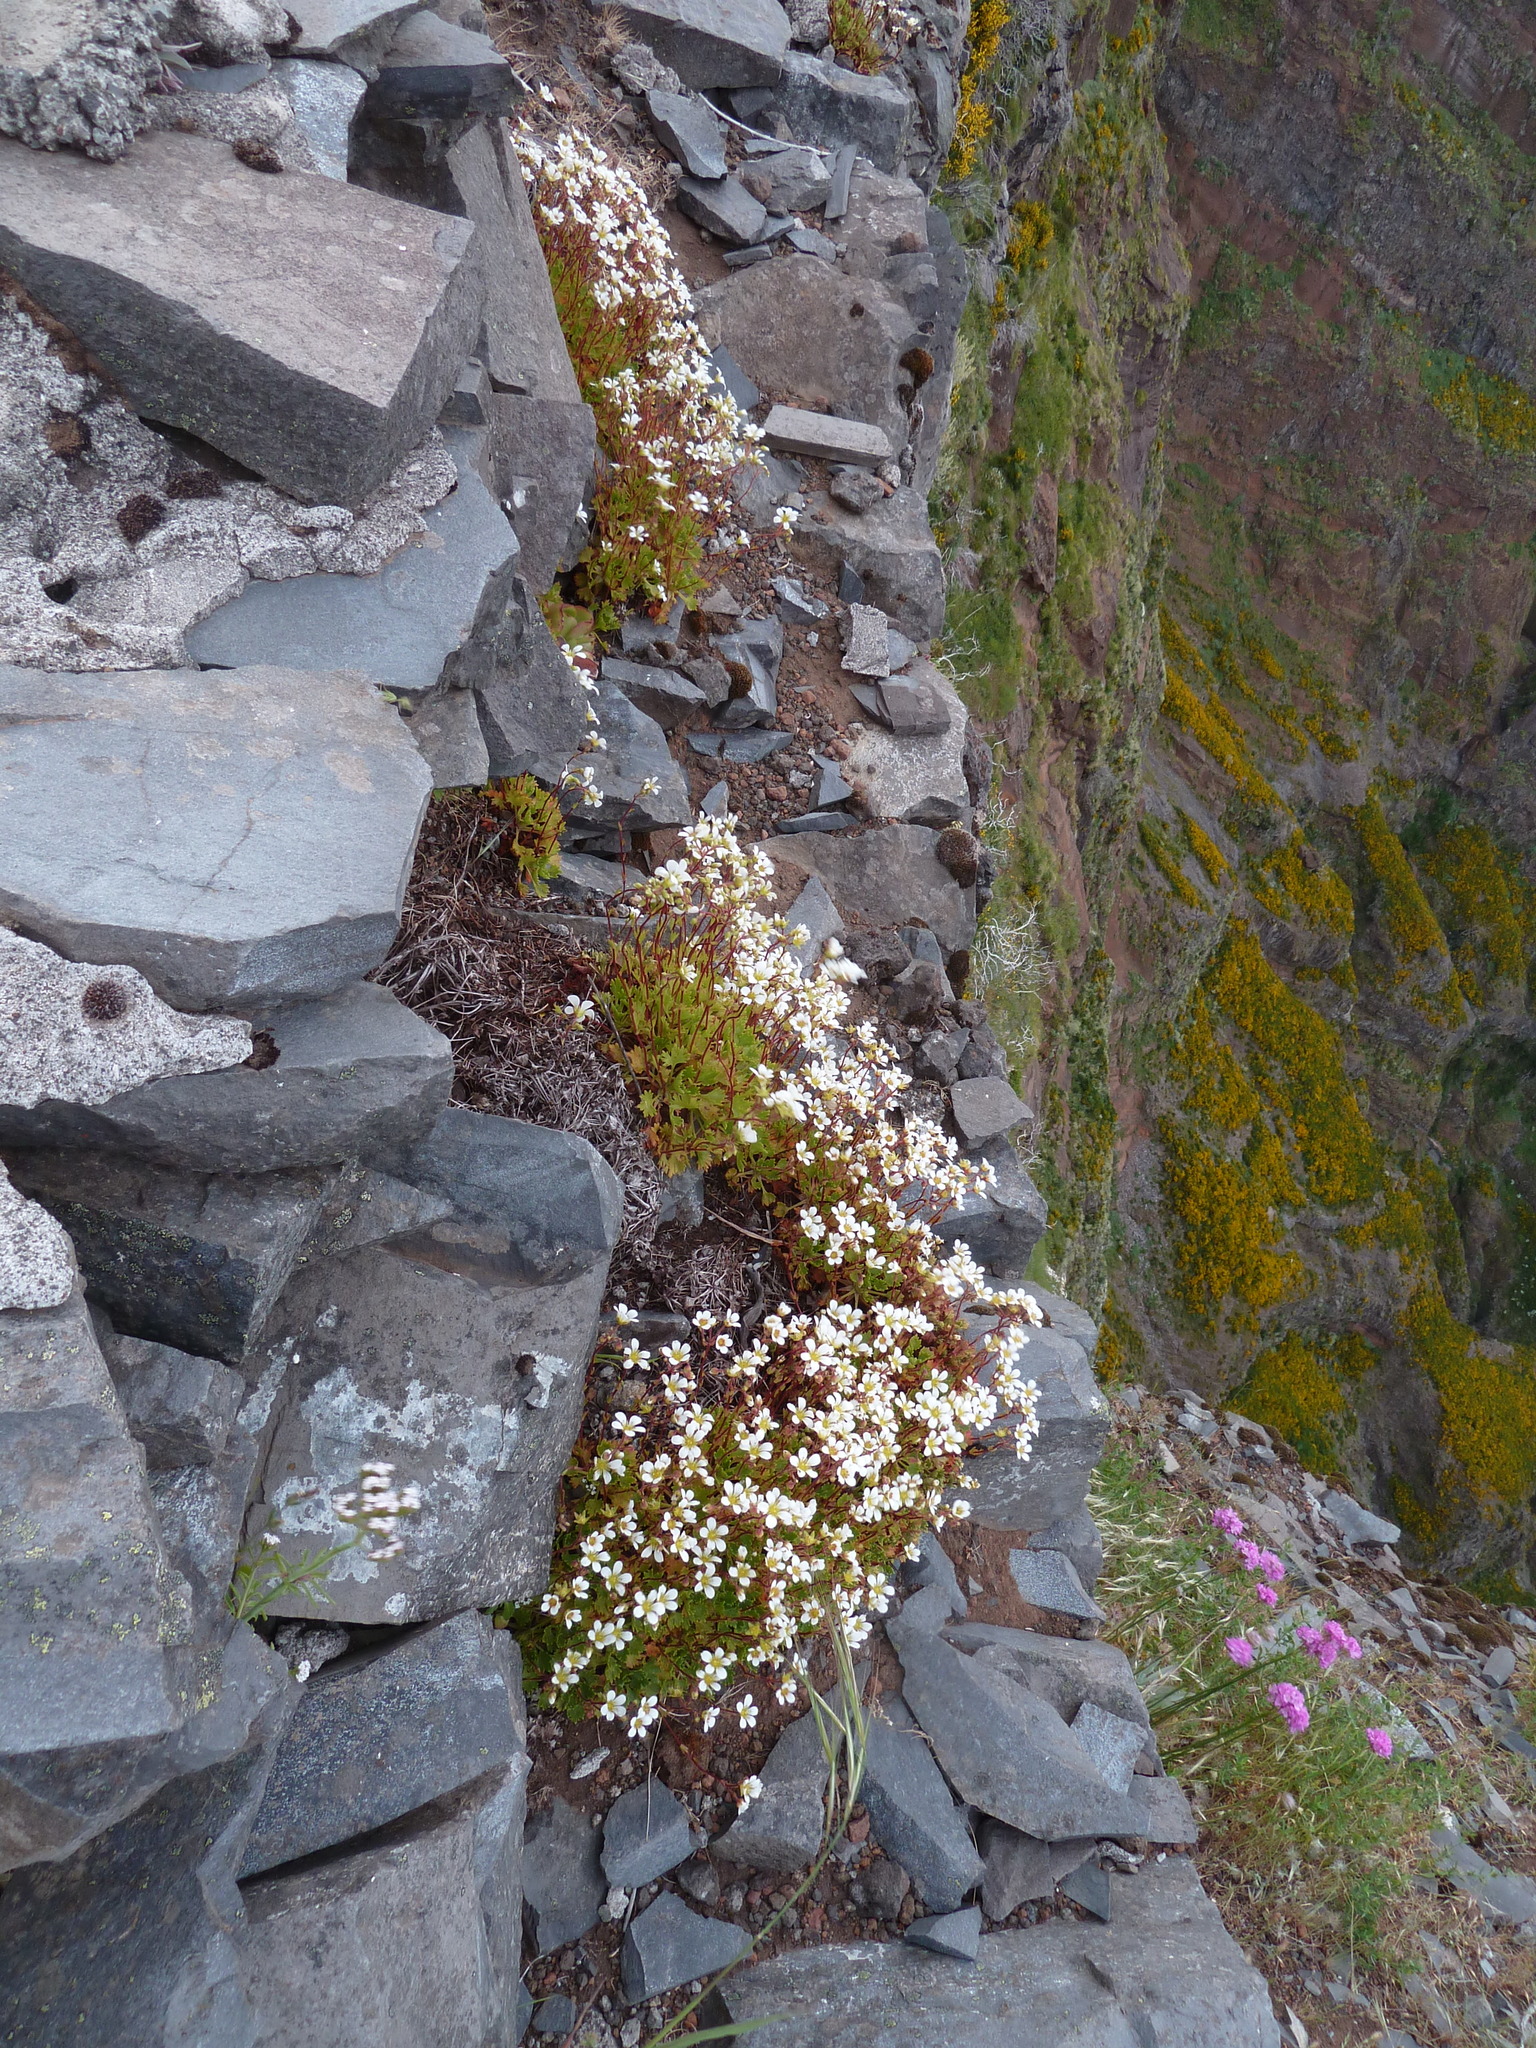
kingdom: Plantae
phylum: Tracheophyta
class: Magnoliopsida
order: Saxifragales
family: Saxifragaceae
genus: Saxifraga
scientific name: Saxifraga maderensis
